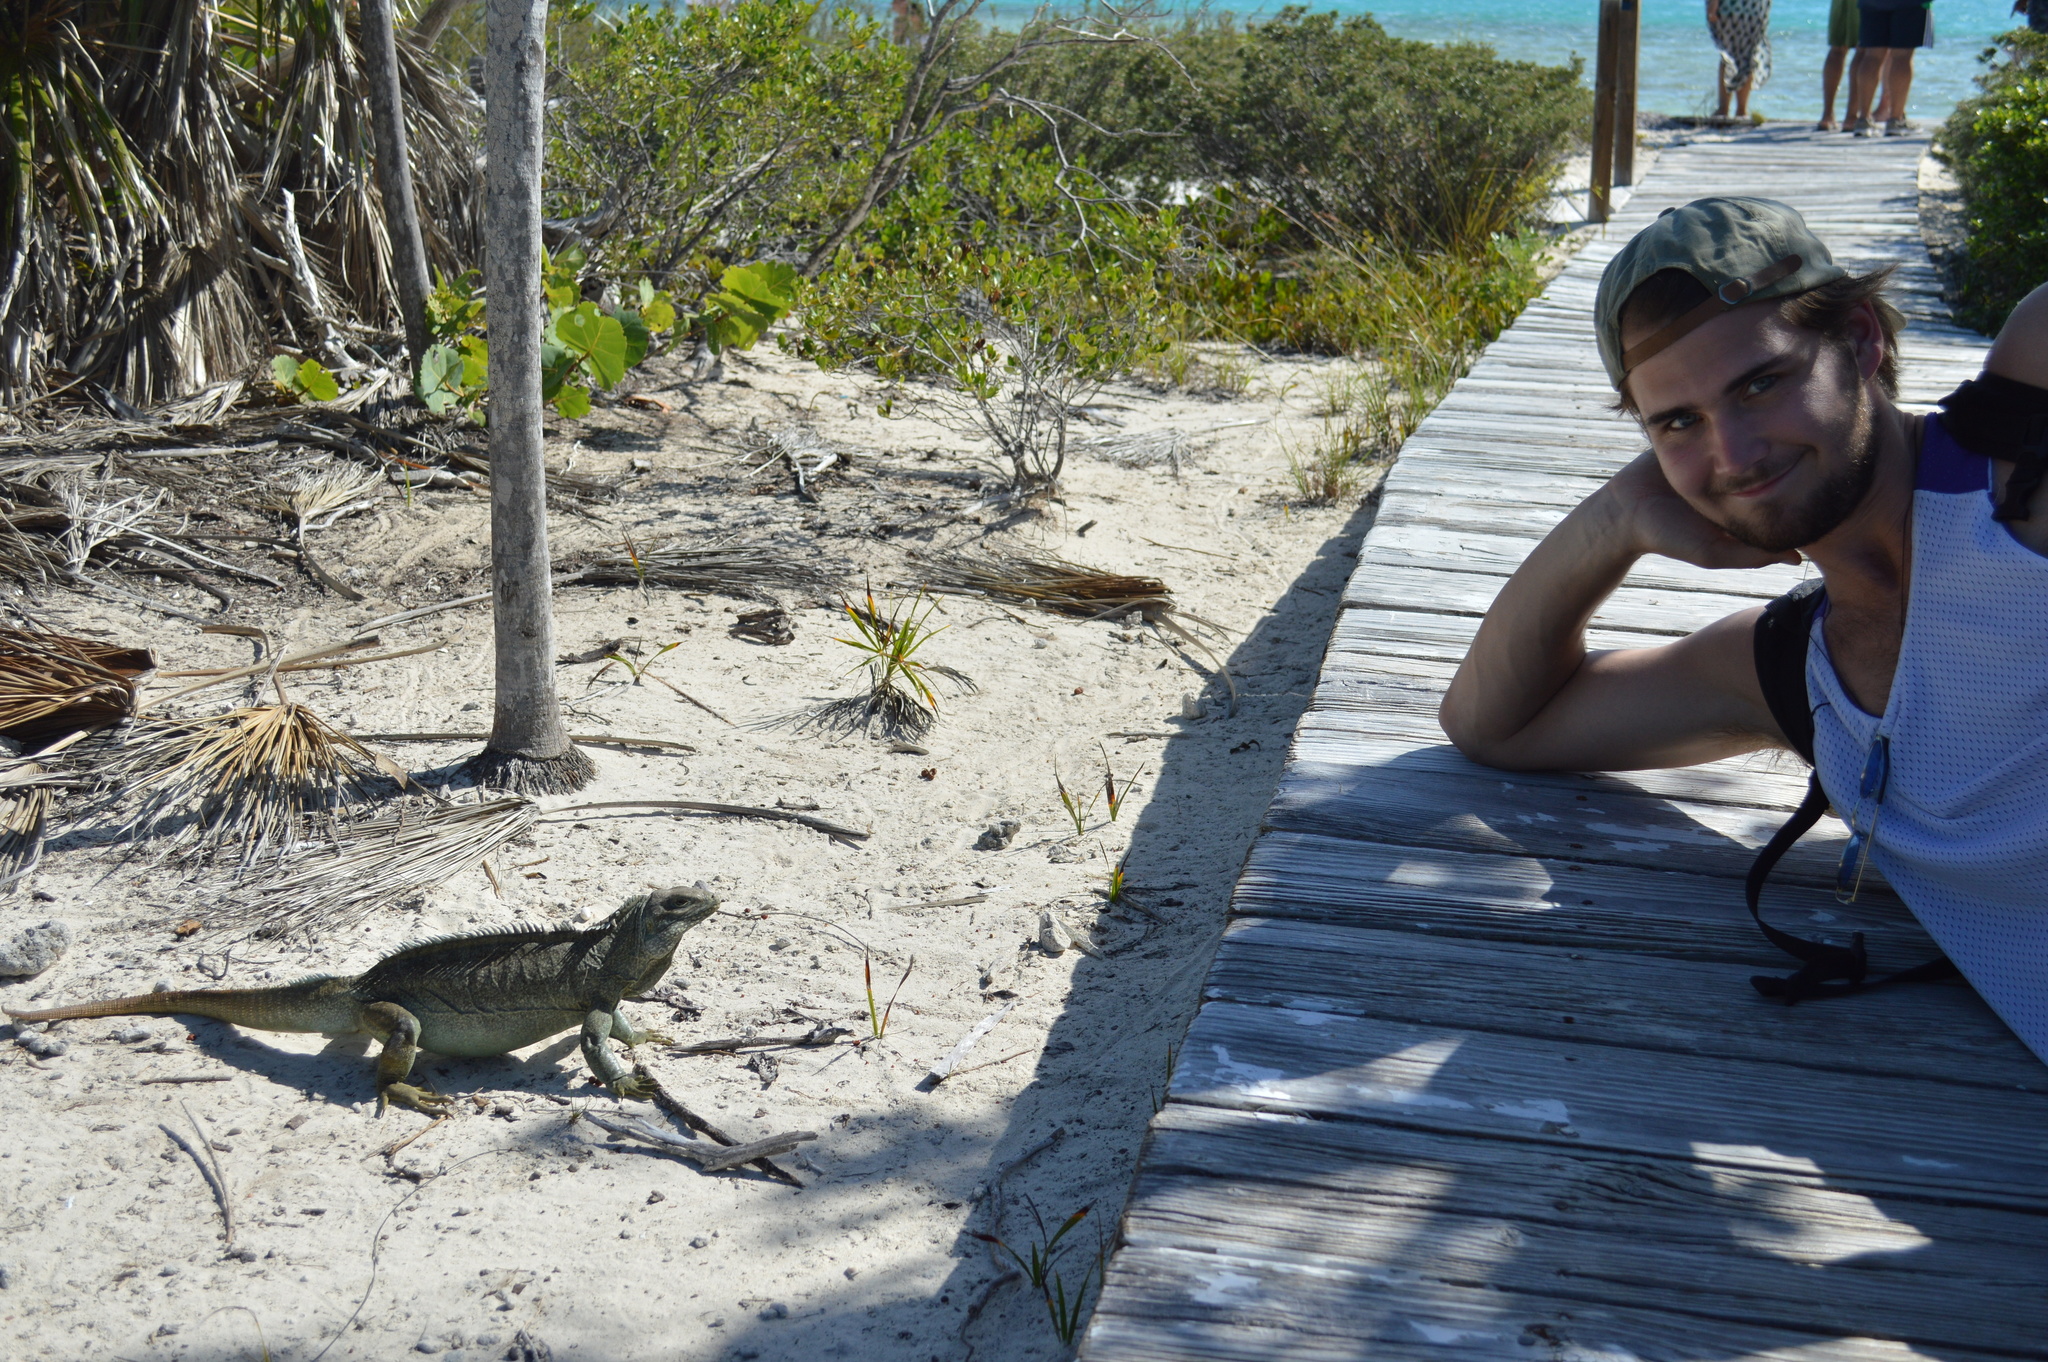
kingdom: Animalia
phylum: Chordata
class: Squamata
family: Iguanidae
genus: Cyclura
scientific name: Cyclura carinata
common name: Turks island iguana
